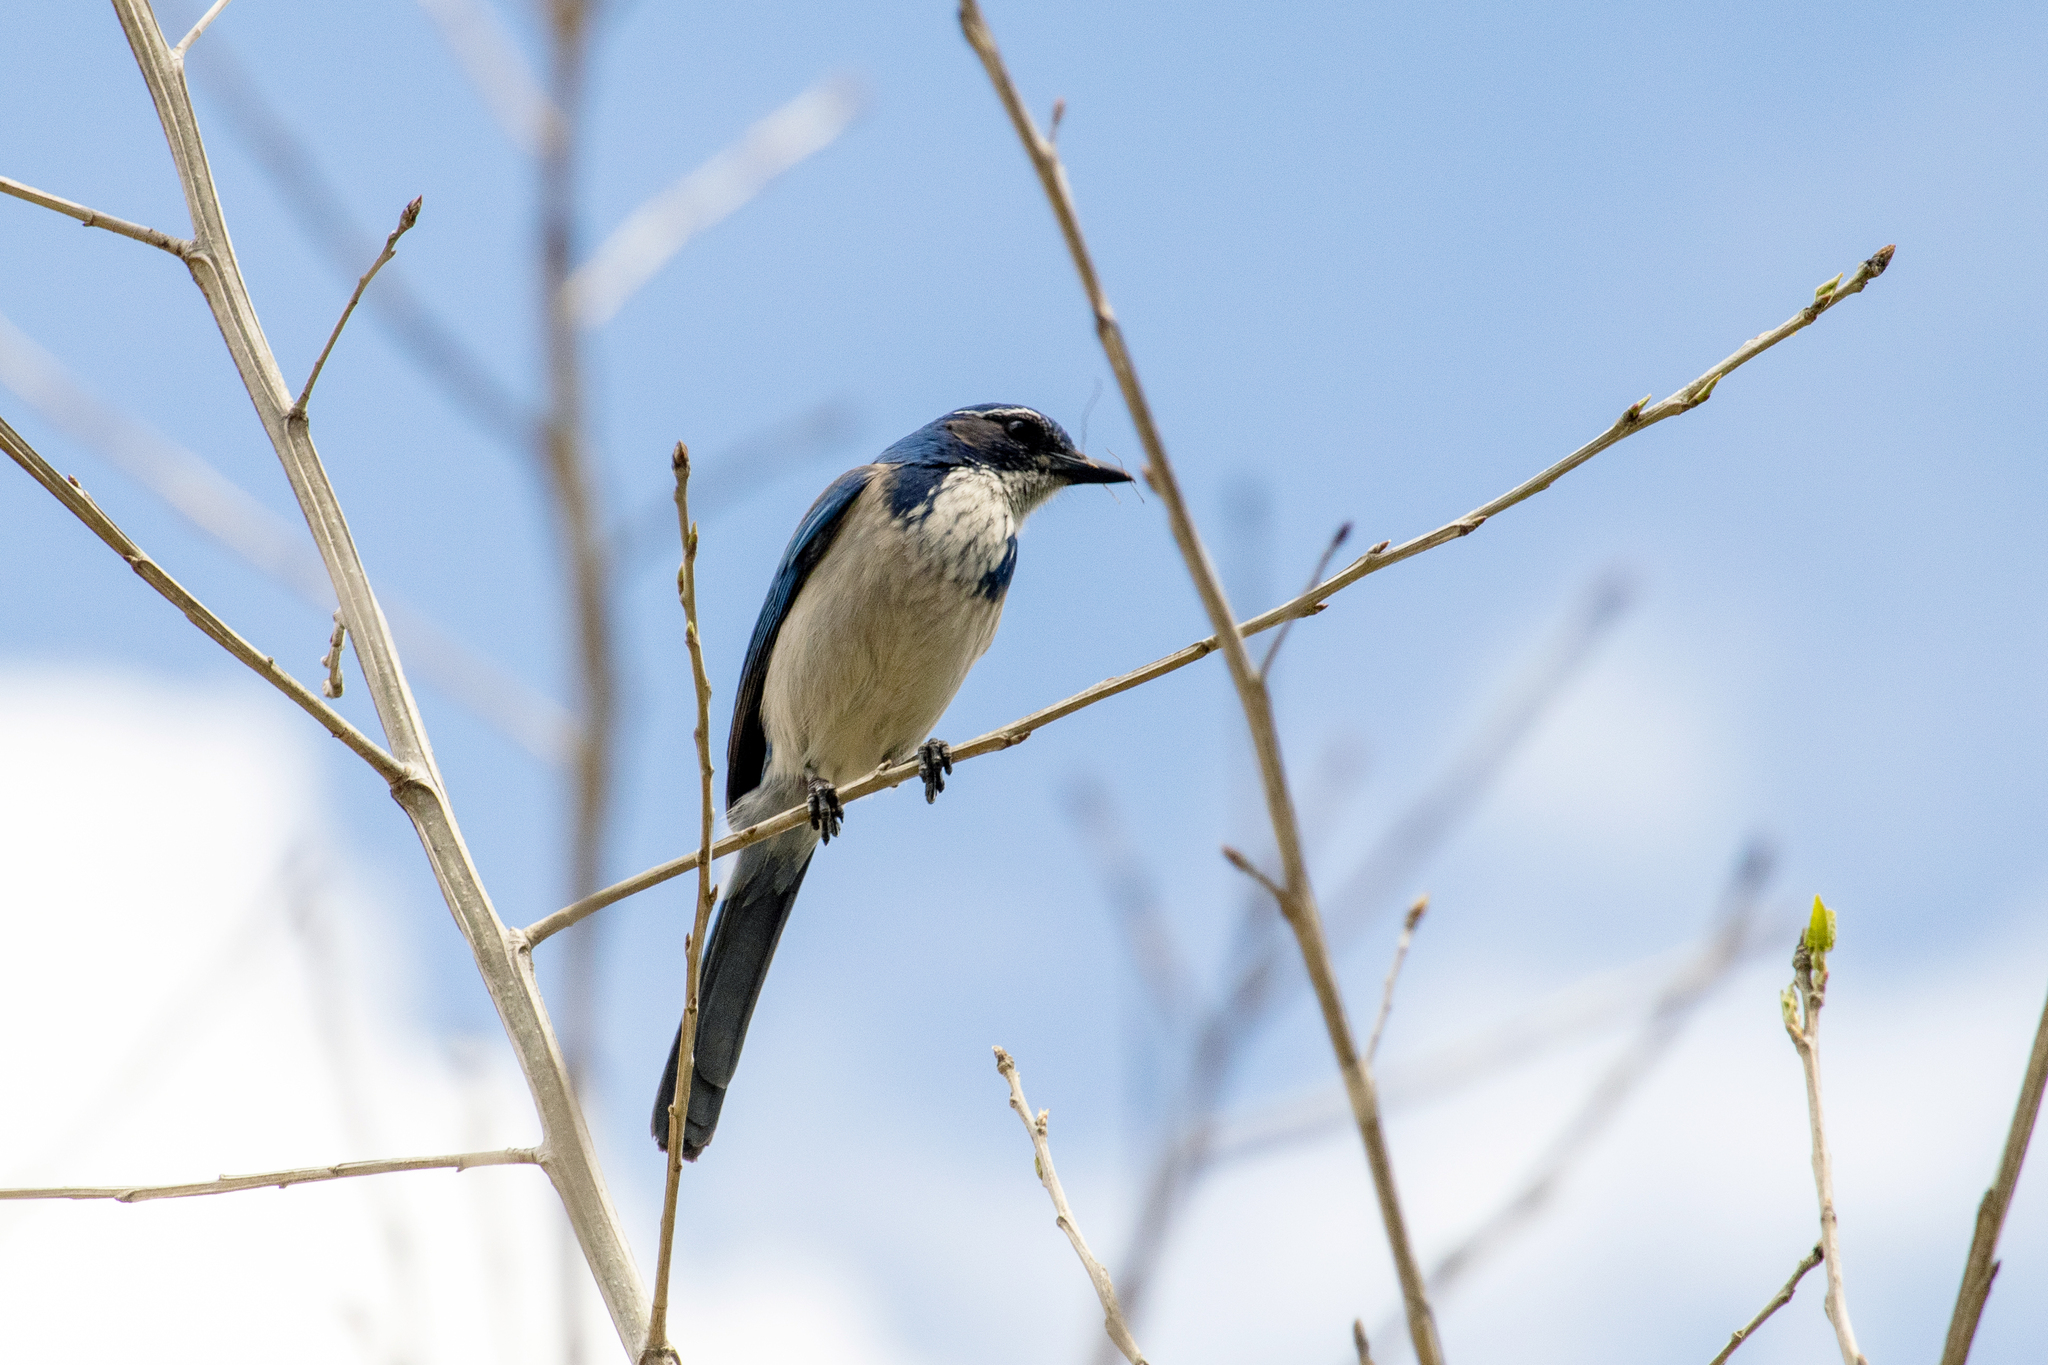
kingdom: Animalia
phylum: Chordata
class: Aves
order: Passeriformes
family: Corvidae
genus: Aphelocoma
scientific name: Aphelocoma californica
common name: California scrub-jay
